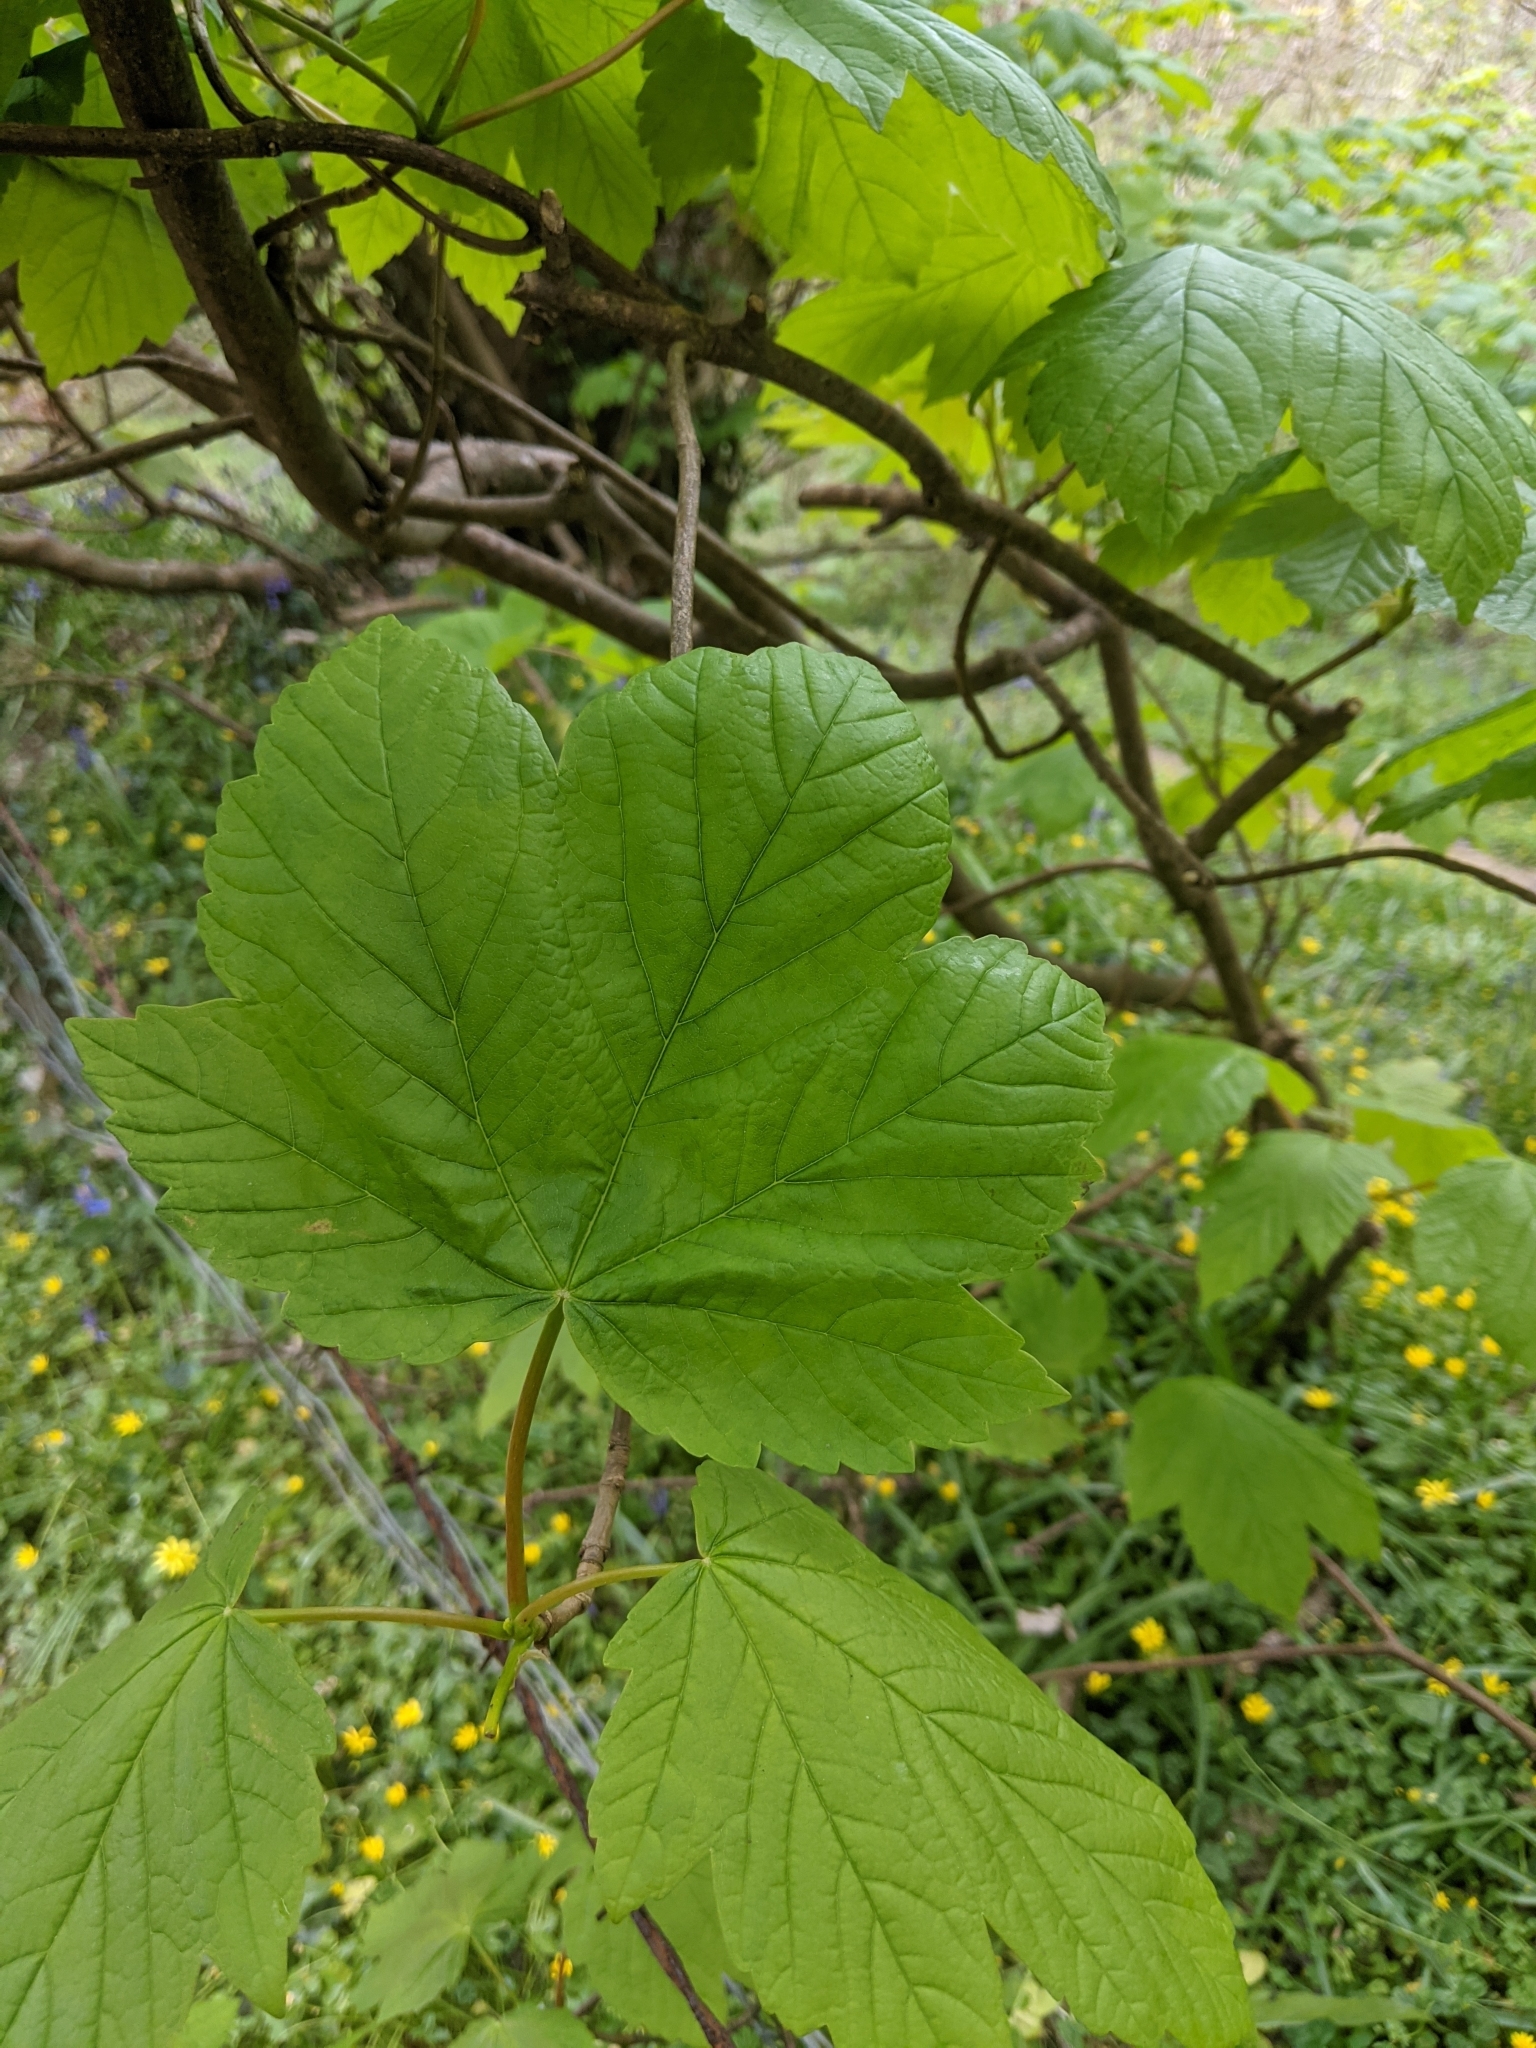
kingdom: Plantae
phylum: Tracheophyta
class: Magnoliopsida
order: Sapindales
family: Sapindaceae
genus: Acer
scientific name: Acer pseudoplatanus
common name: Sycamore
